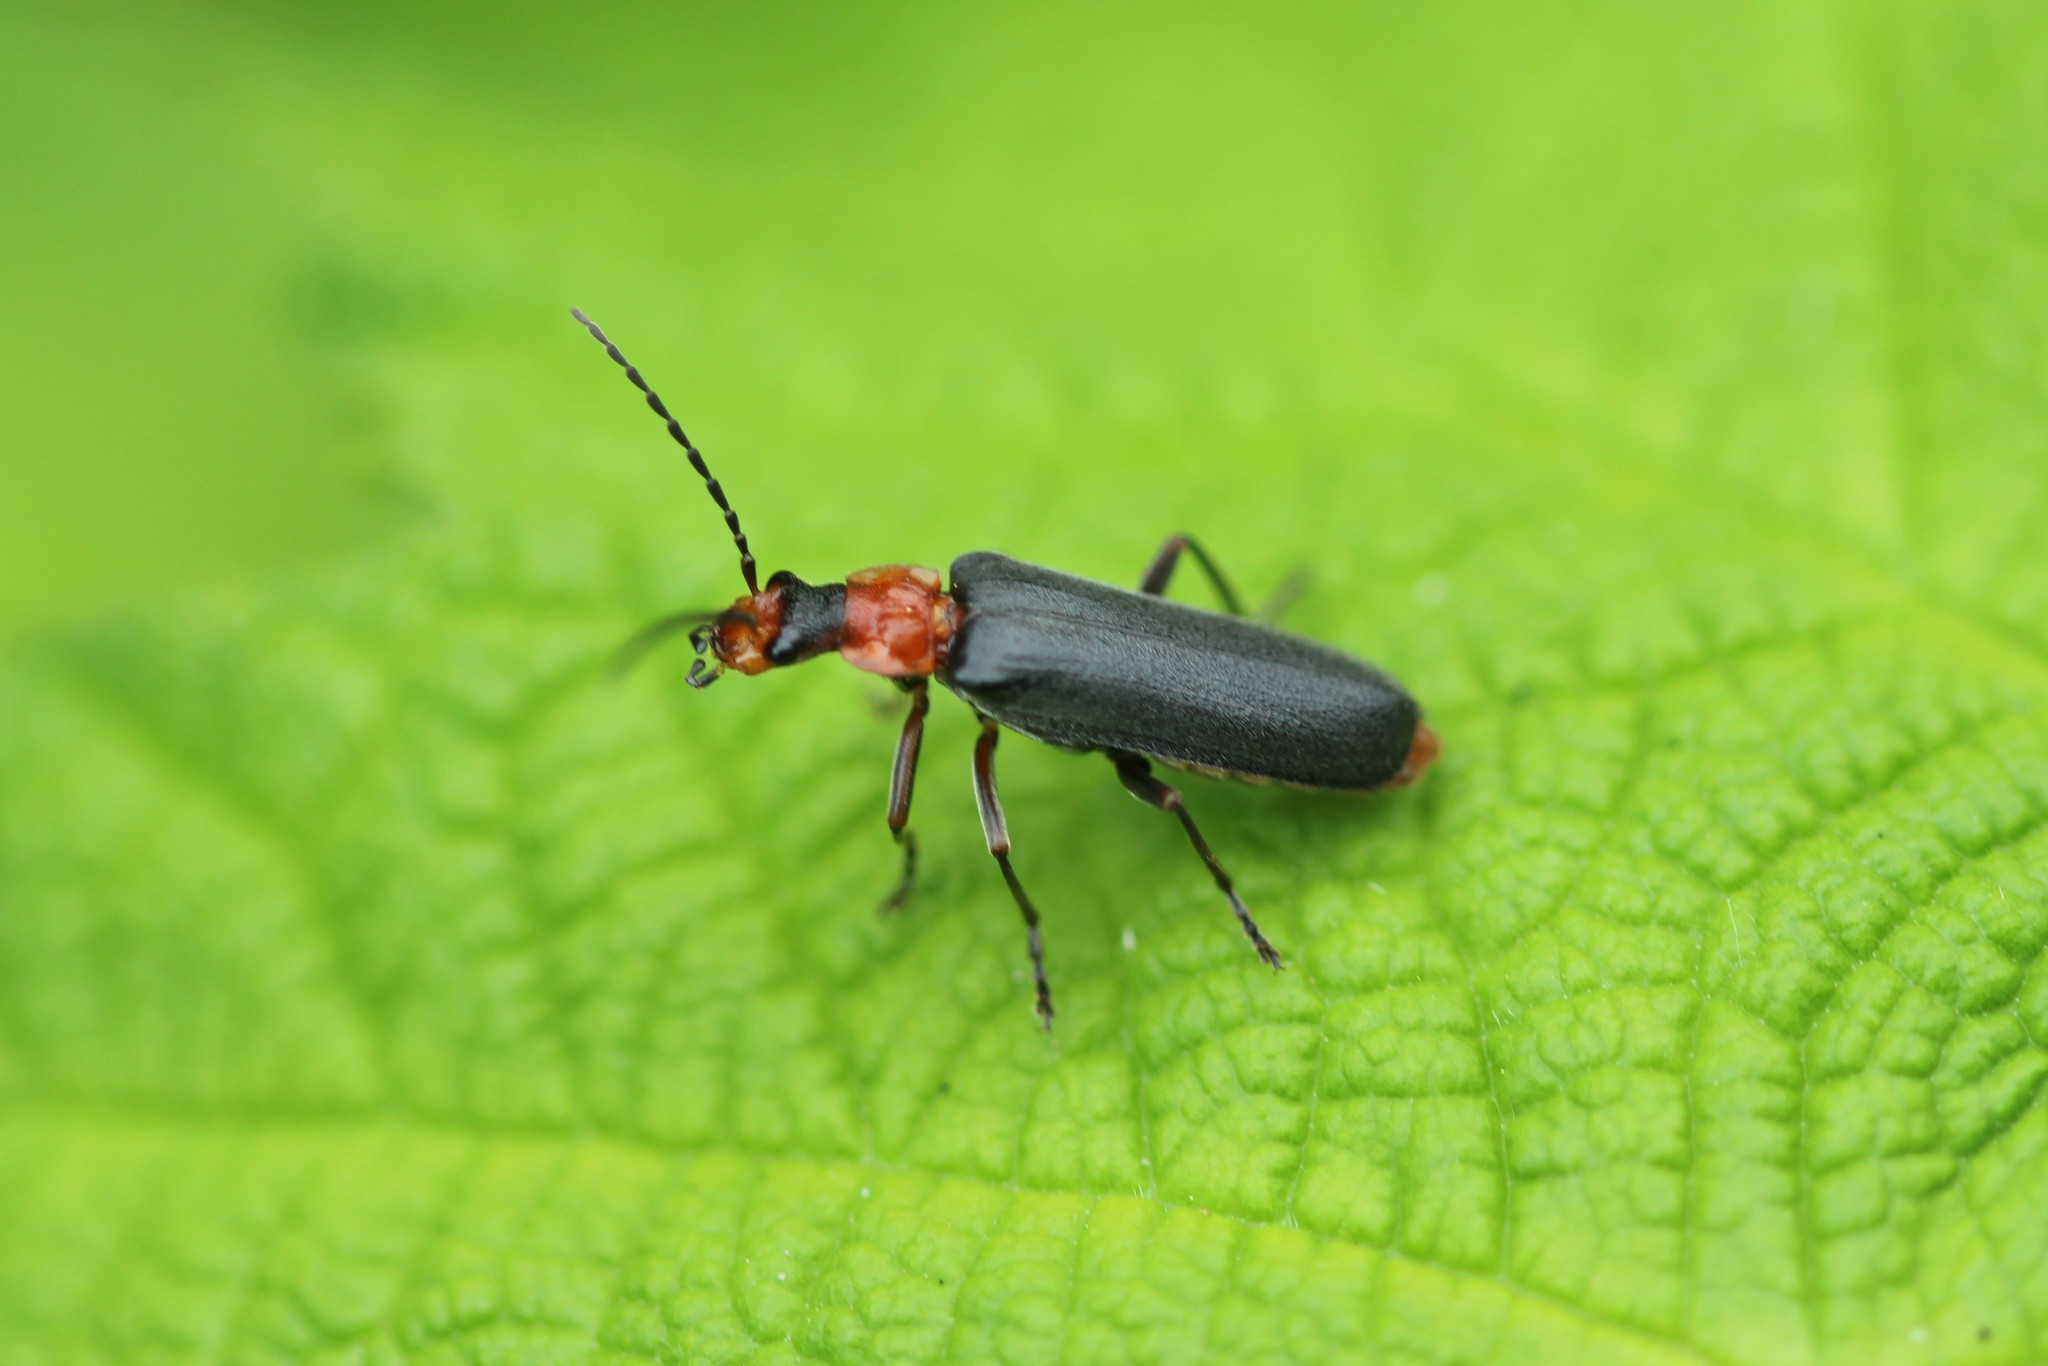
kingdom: Animalia
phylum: Arthropoda
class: Insecta
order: Coleoptera
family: Cantharidae
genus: Podabrus
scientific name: Podabrus pruinosus
